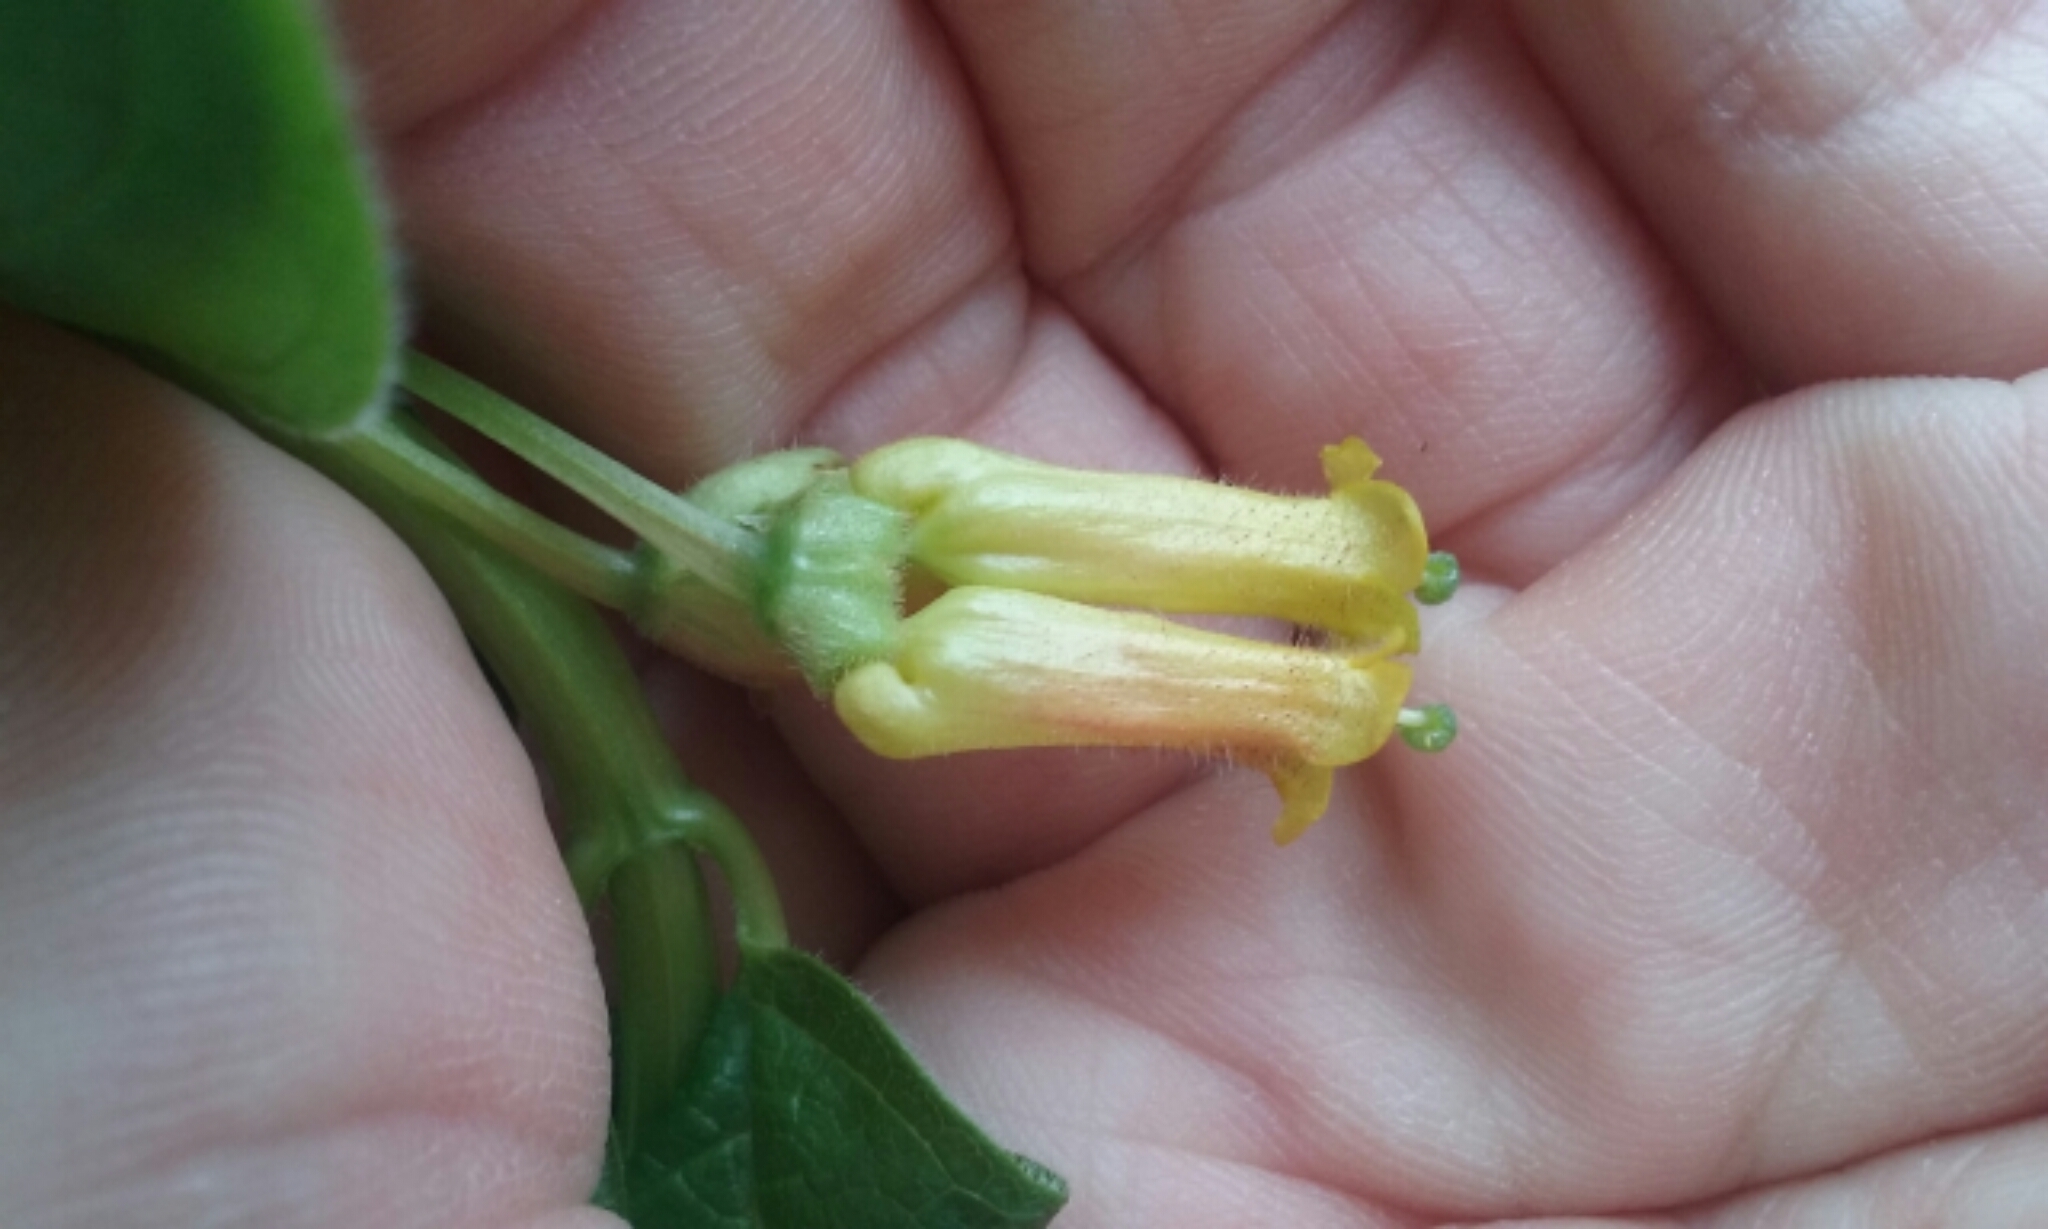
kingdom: Plantae
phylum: Tracheophyta
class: Magnoliopsida
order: Dipsacales
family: Caprifoliaceae
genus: Lonicera
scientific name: Lonicera involucrata
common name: Californian honeysuckle
